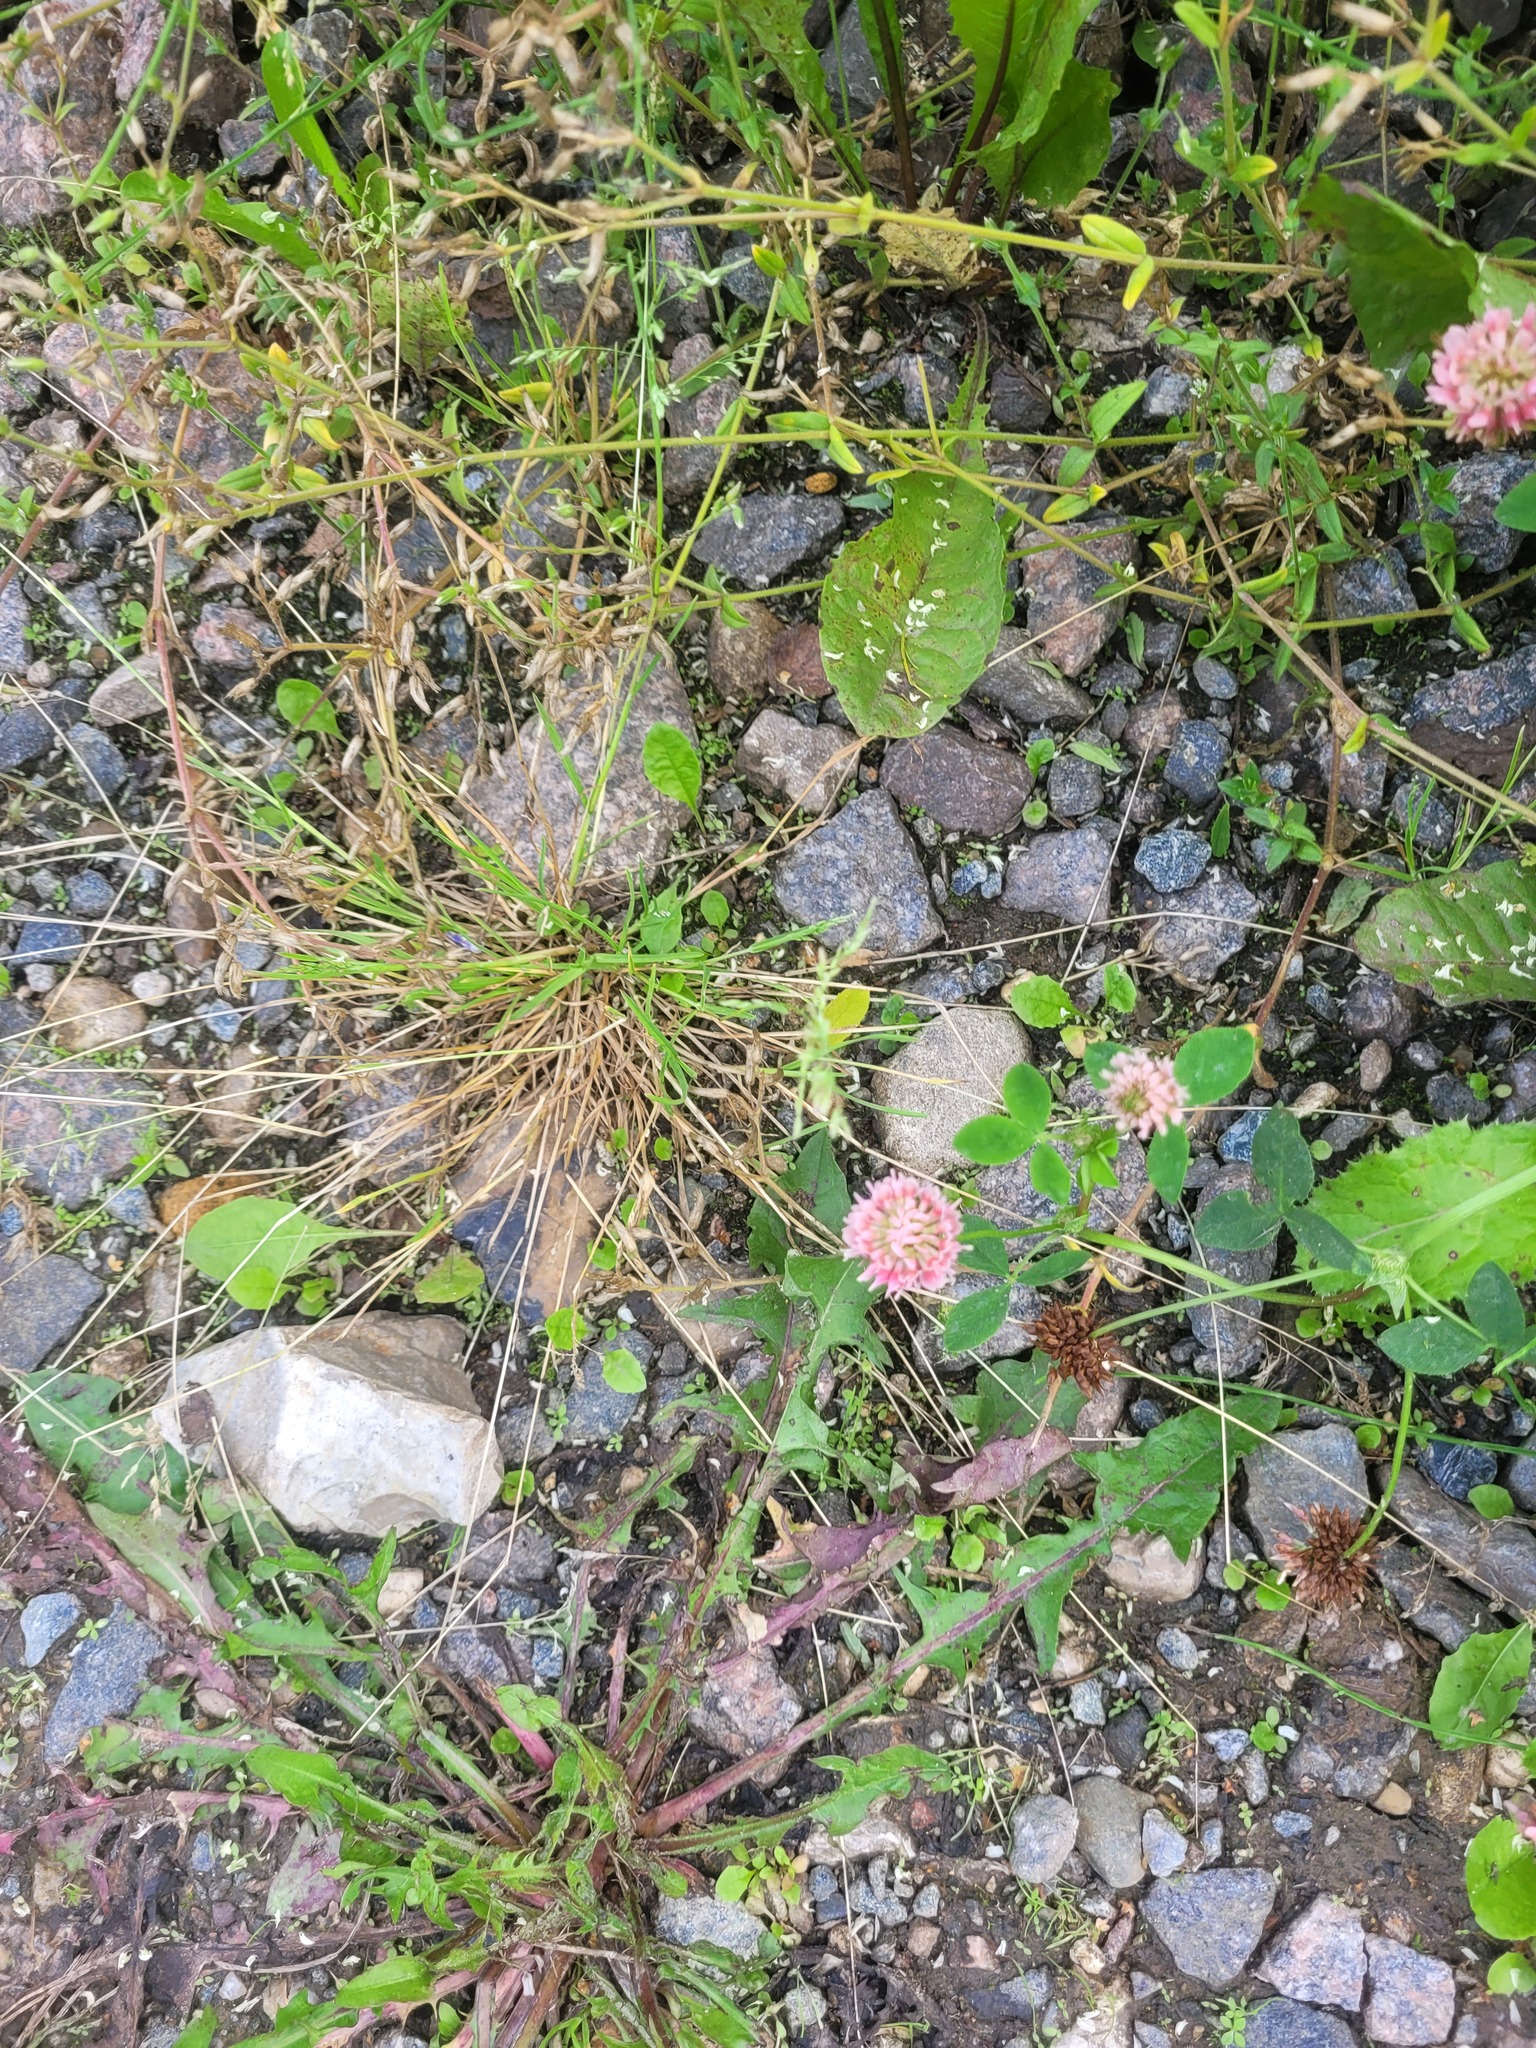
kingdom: Plantae
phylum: Tracheophyta
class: Magnoliopsida
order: Fabales
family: Fabaceae
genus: Trifolium
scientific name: Trifolium hybridum
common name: Alsike clover
